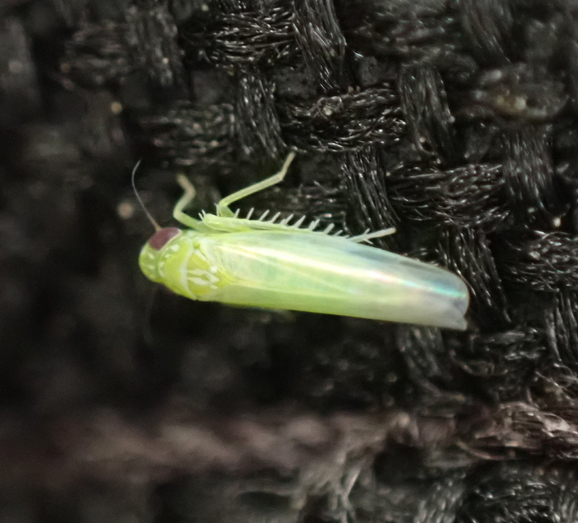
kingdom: Animalia
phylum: Arthropoda
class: Insecta
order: Hemiptera
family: Cicadellidae
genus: Empoasca
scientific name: Empoasca fabae
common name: Potato leafhopper
